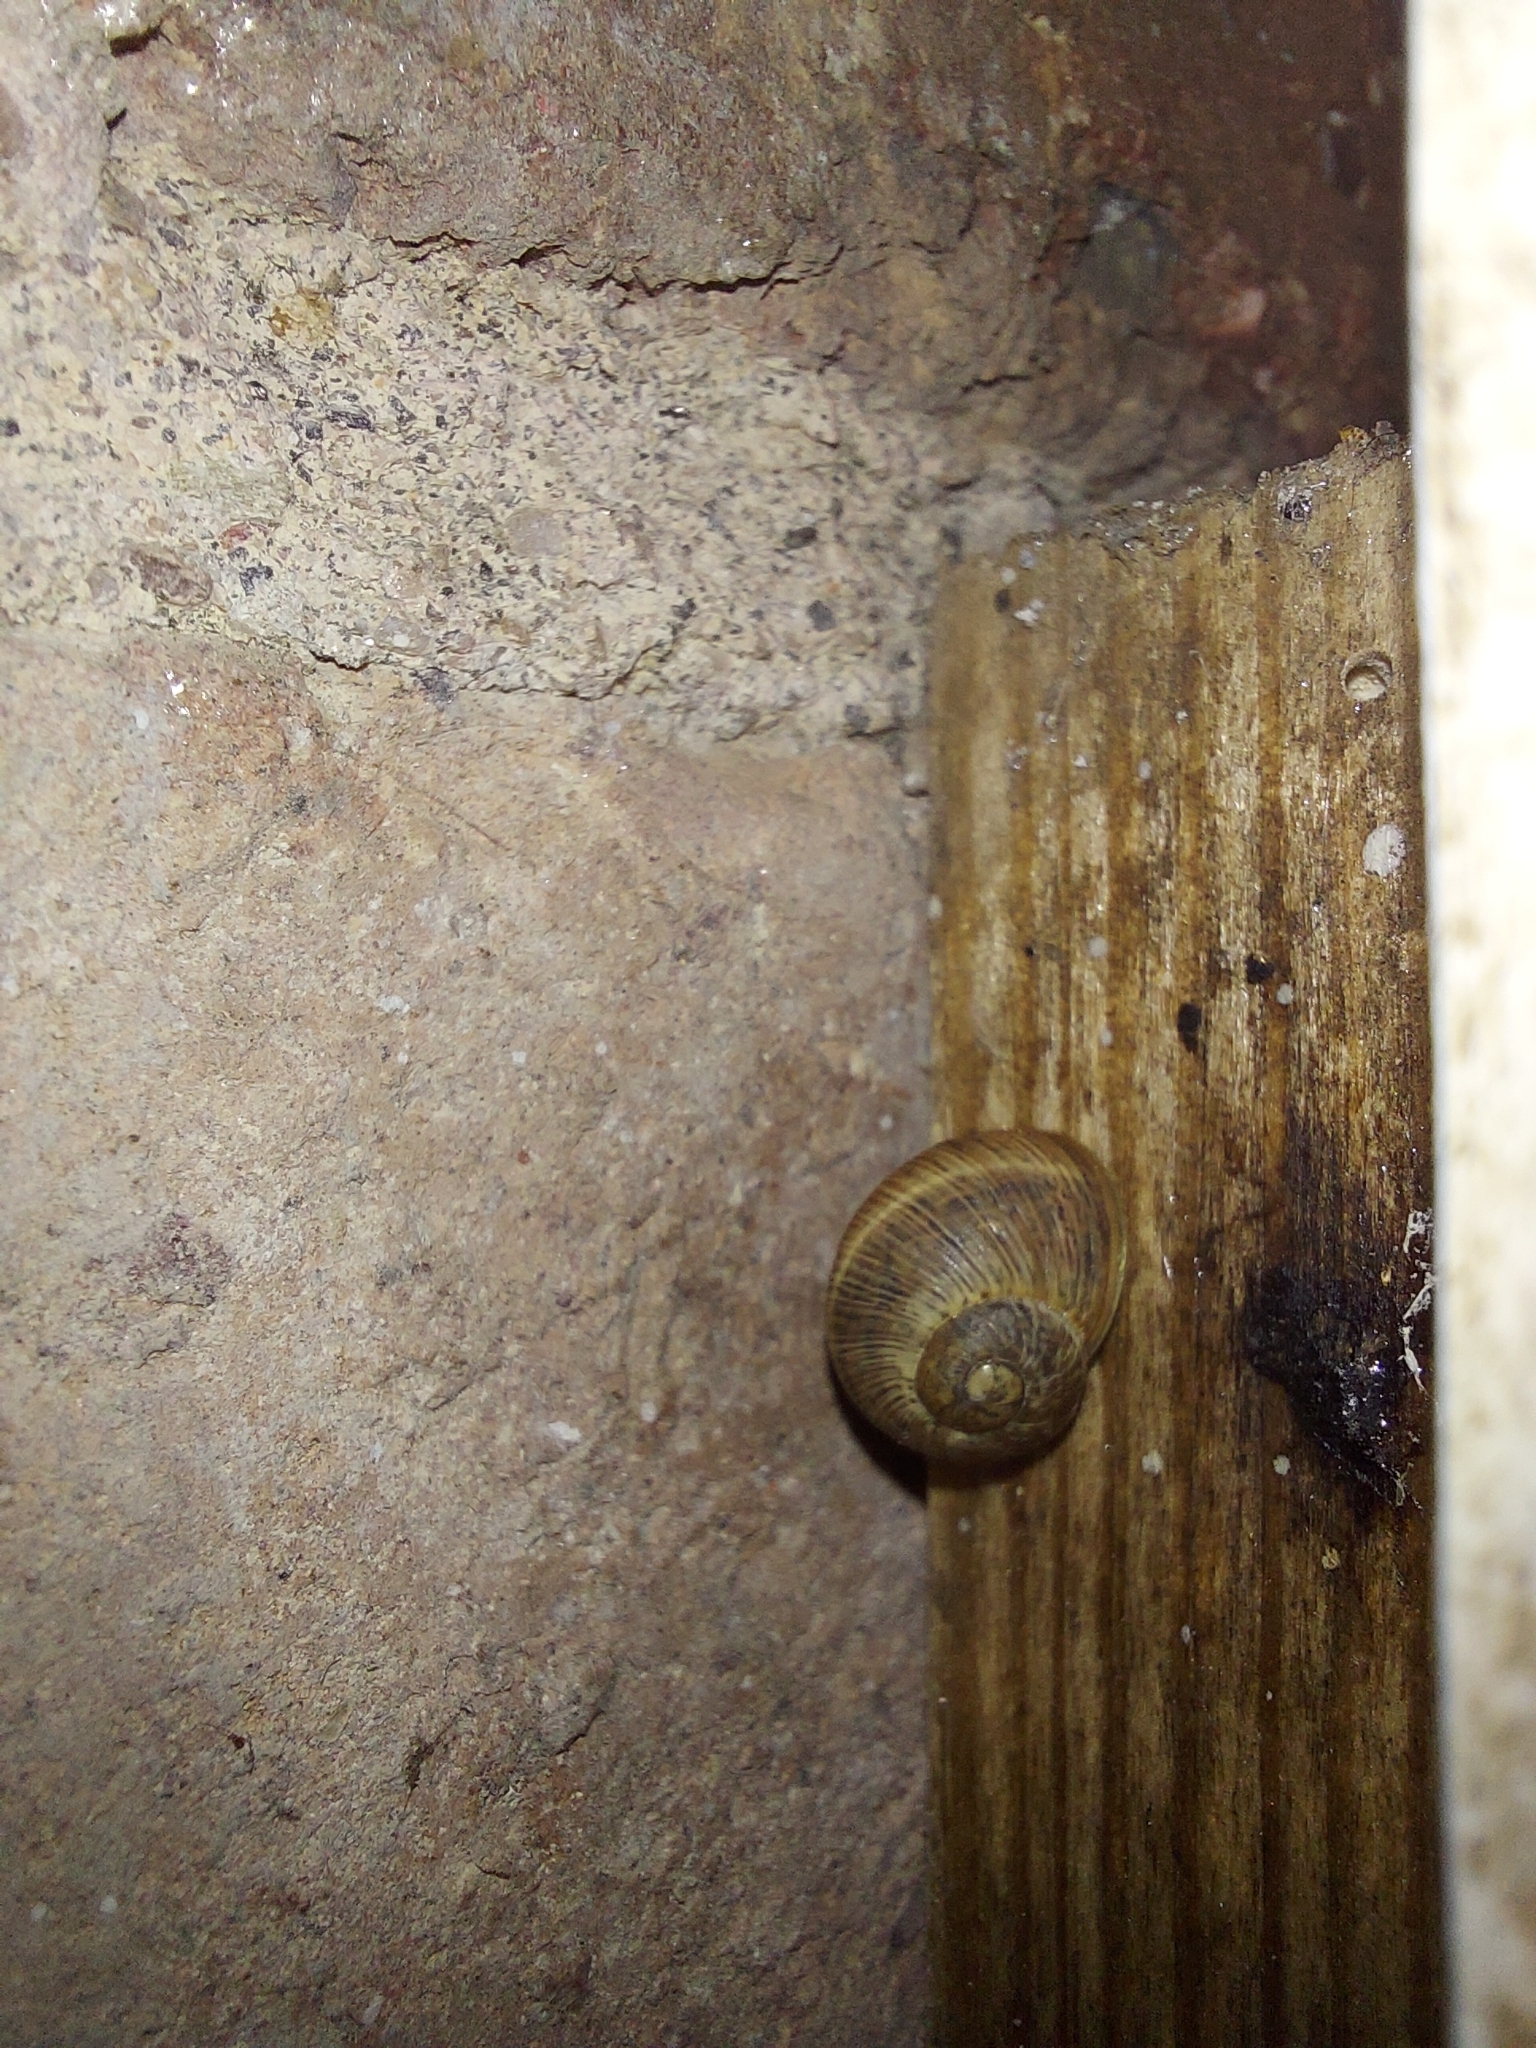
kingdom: Animalia
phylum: Mollusca
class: Gastropoda
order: Stylommatophora
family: Helicidae
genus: Cornu
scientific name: Cornu aspersum
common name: Brown garden snail
